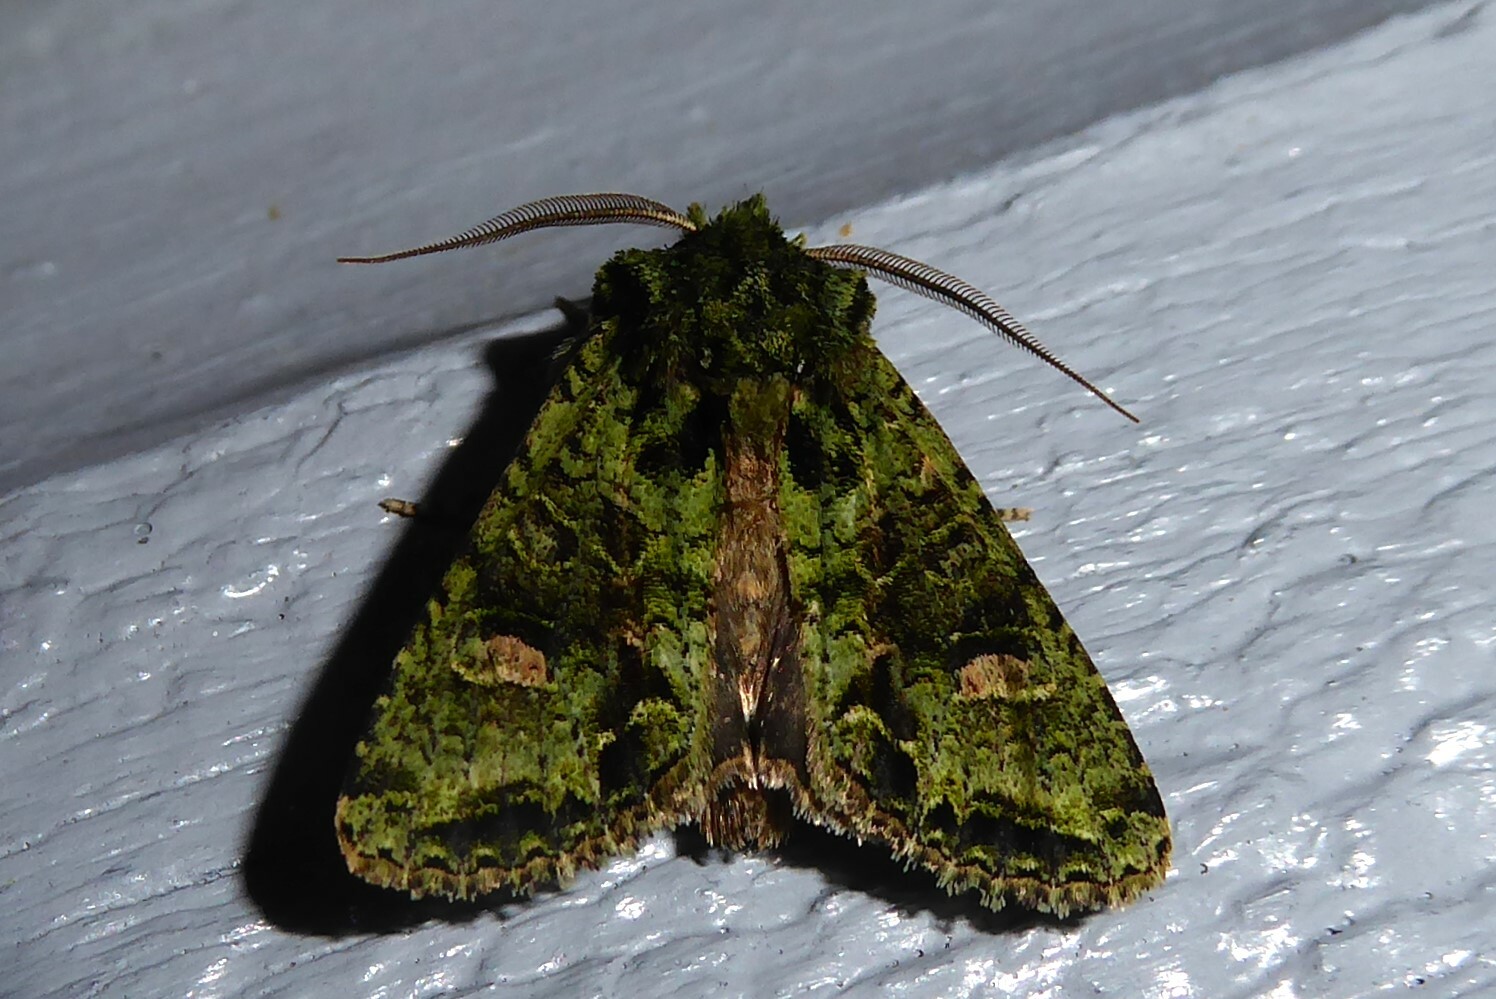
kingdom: Animalia
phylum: Arthropoda
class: Insecta
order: Lepidoptera
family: Noctuidae
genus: Ichneutica
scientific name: Ichneutica
